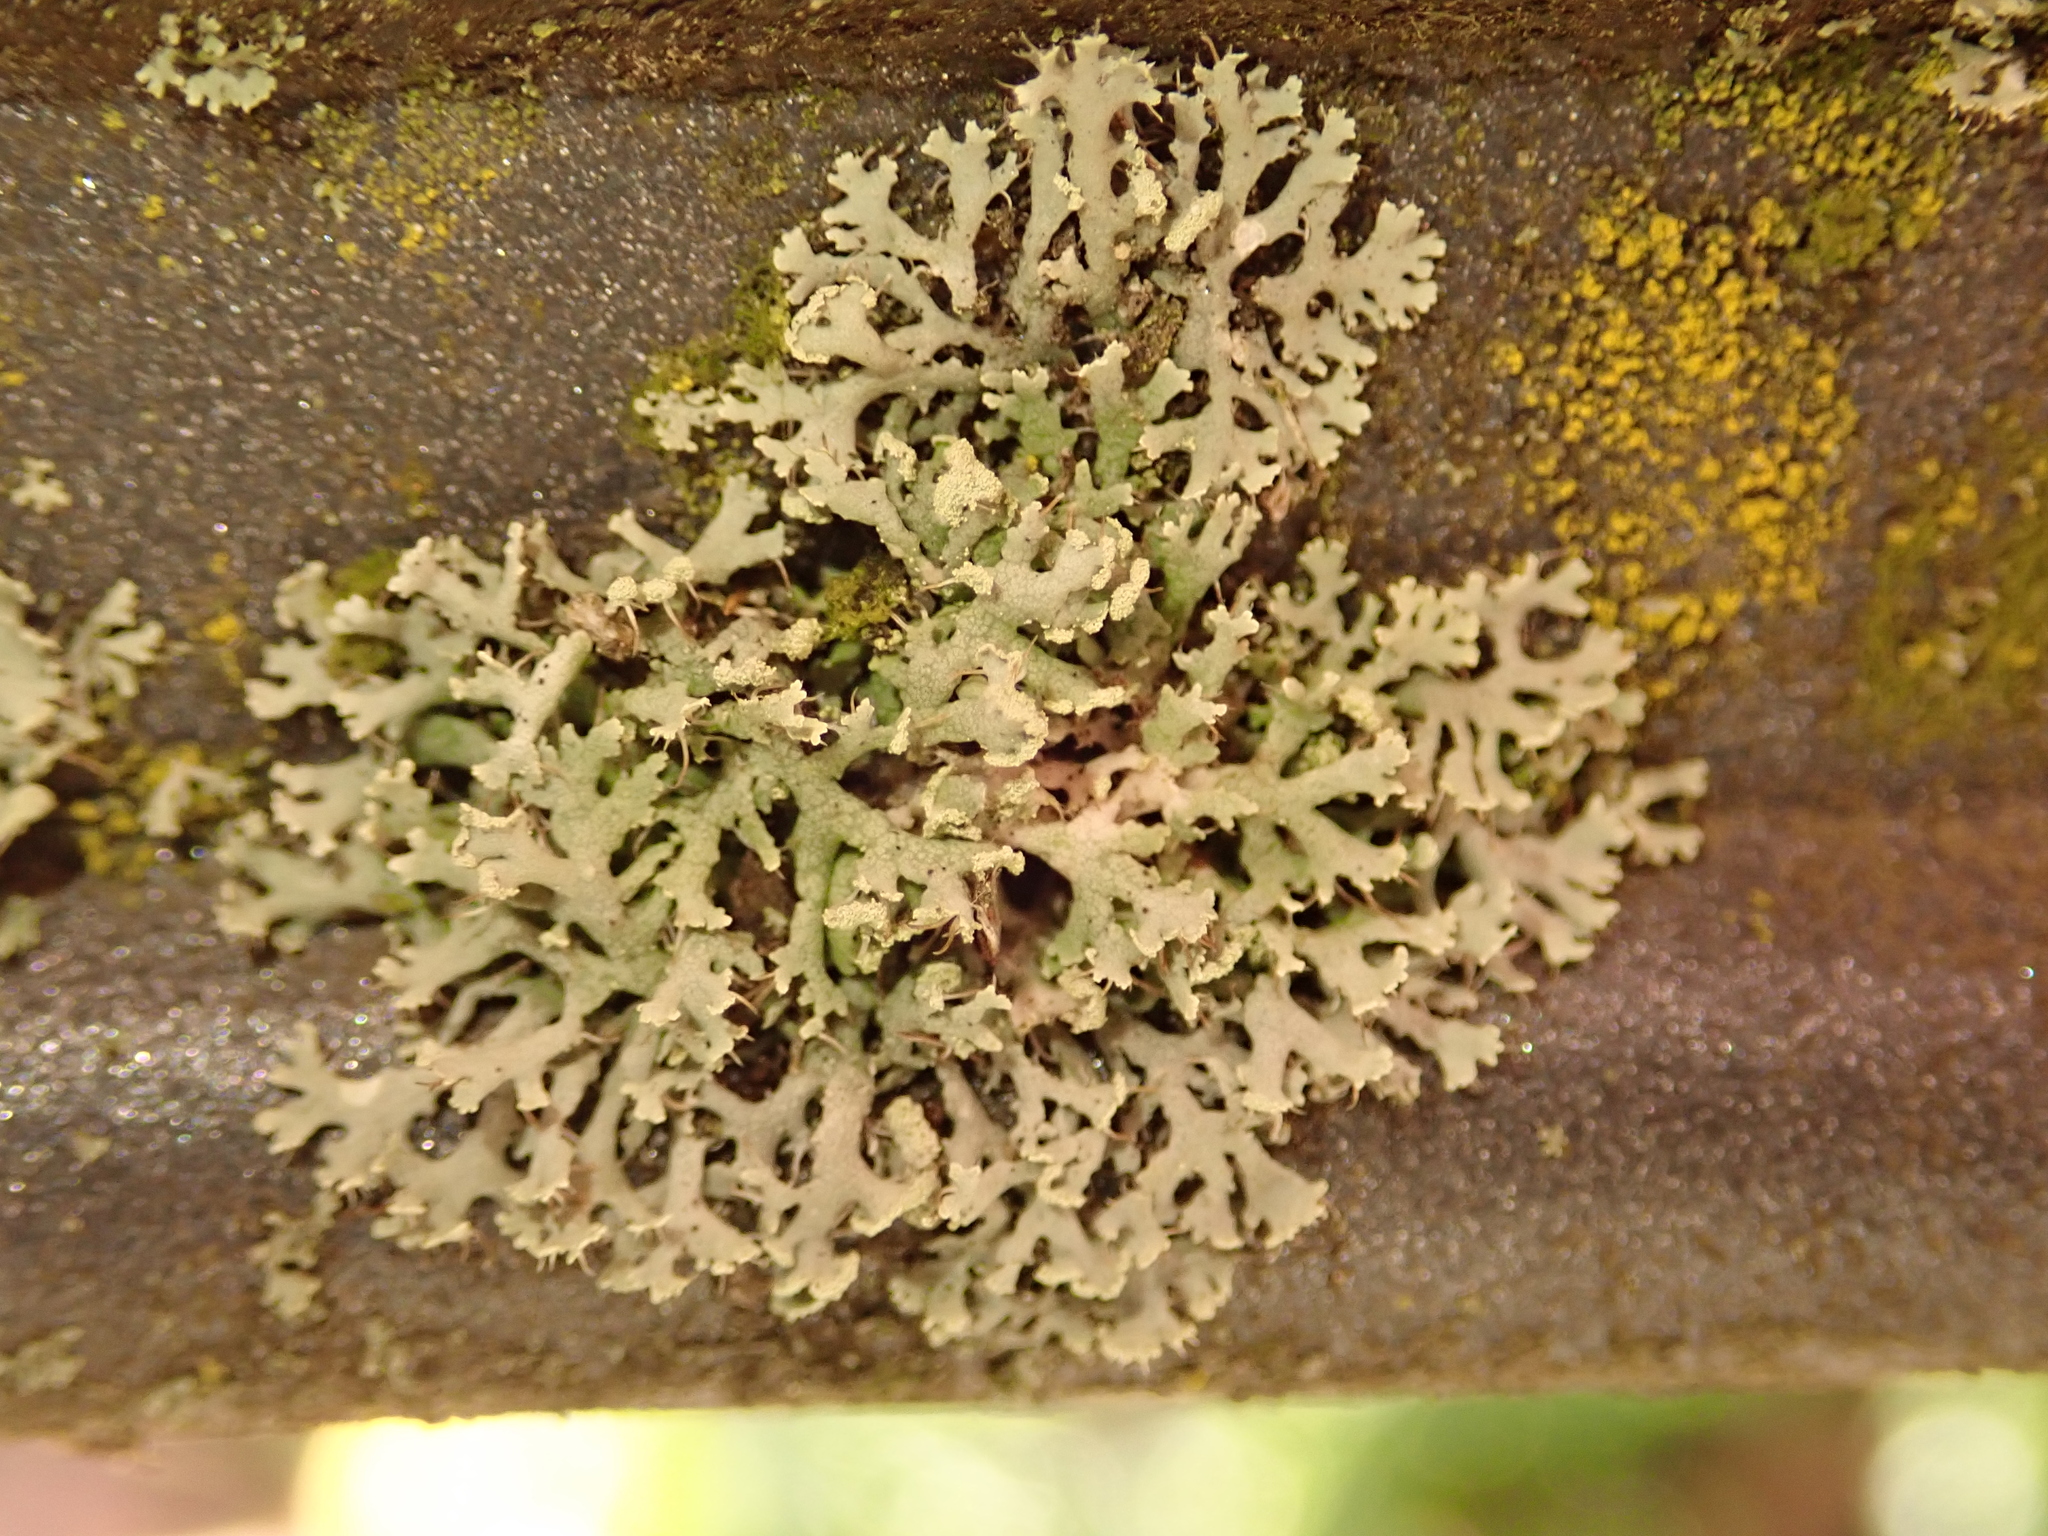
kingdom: Fungi
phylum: Ascomycota
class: Lecanoromycetes
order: Caliciales
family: Physciaceae
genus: Physcia
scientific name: Physcia tenella
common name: Fringed rosette lichen
